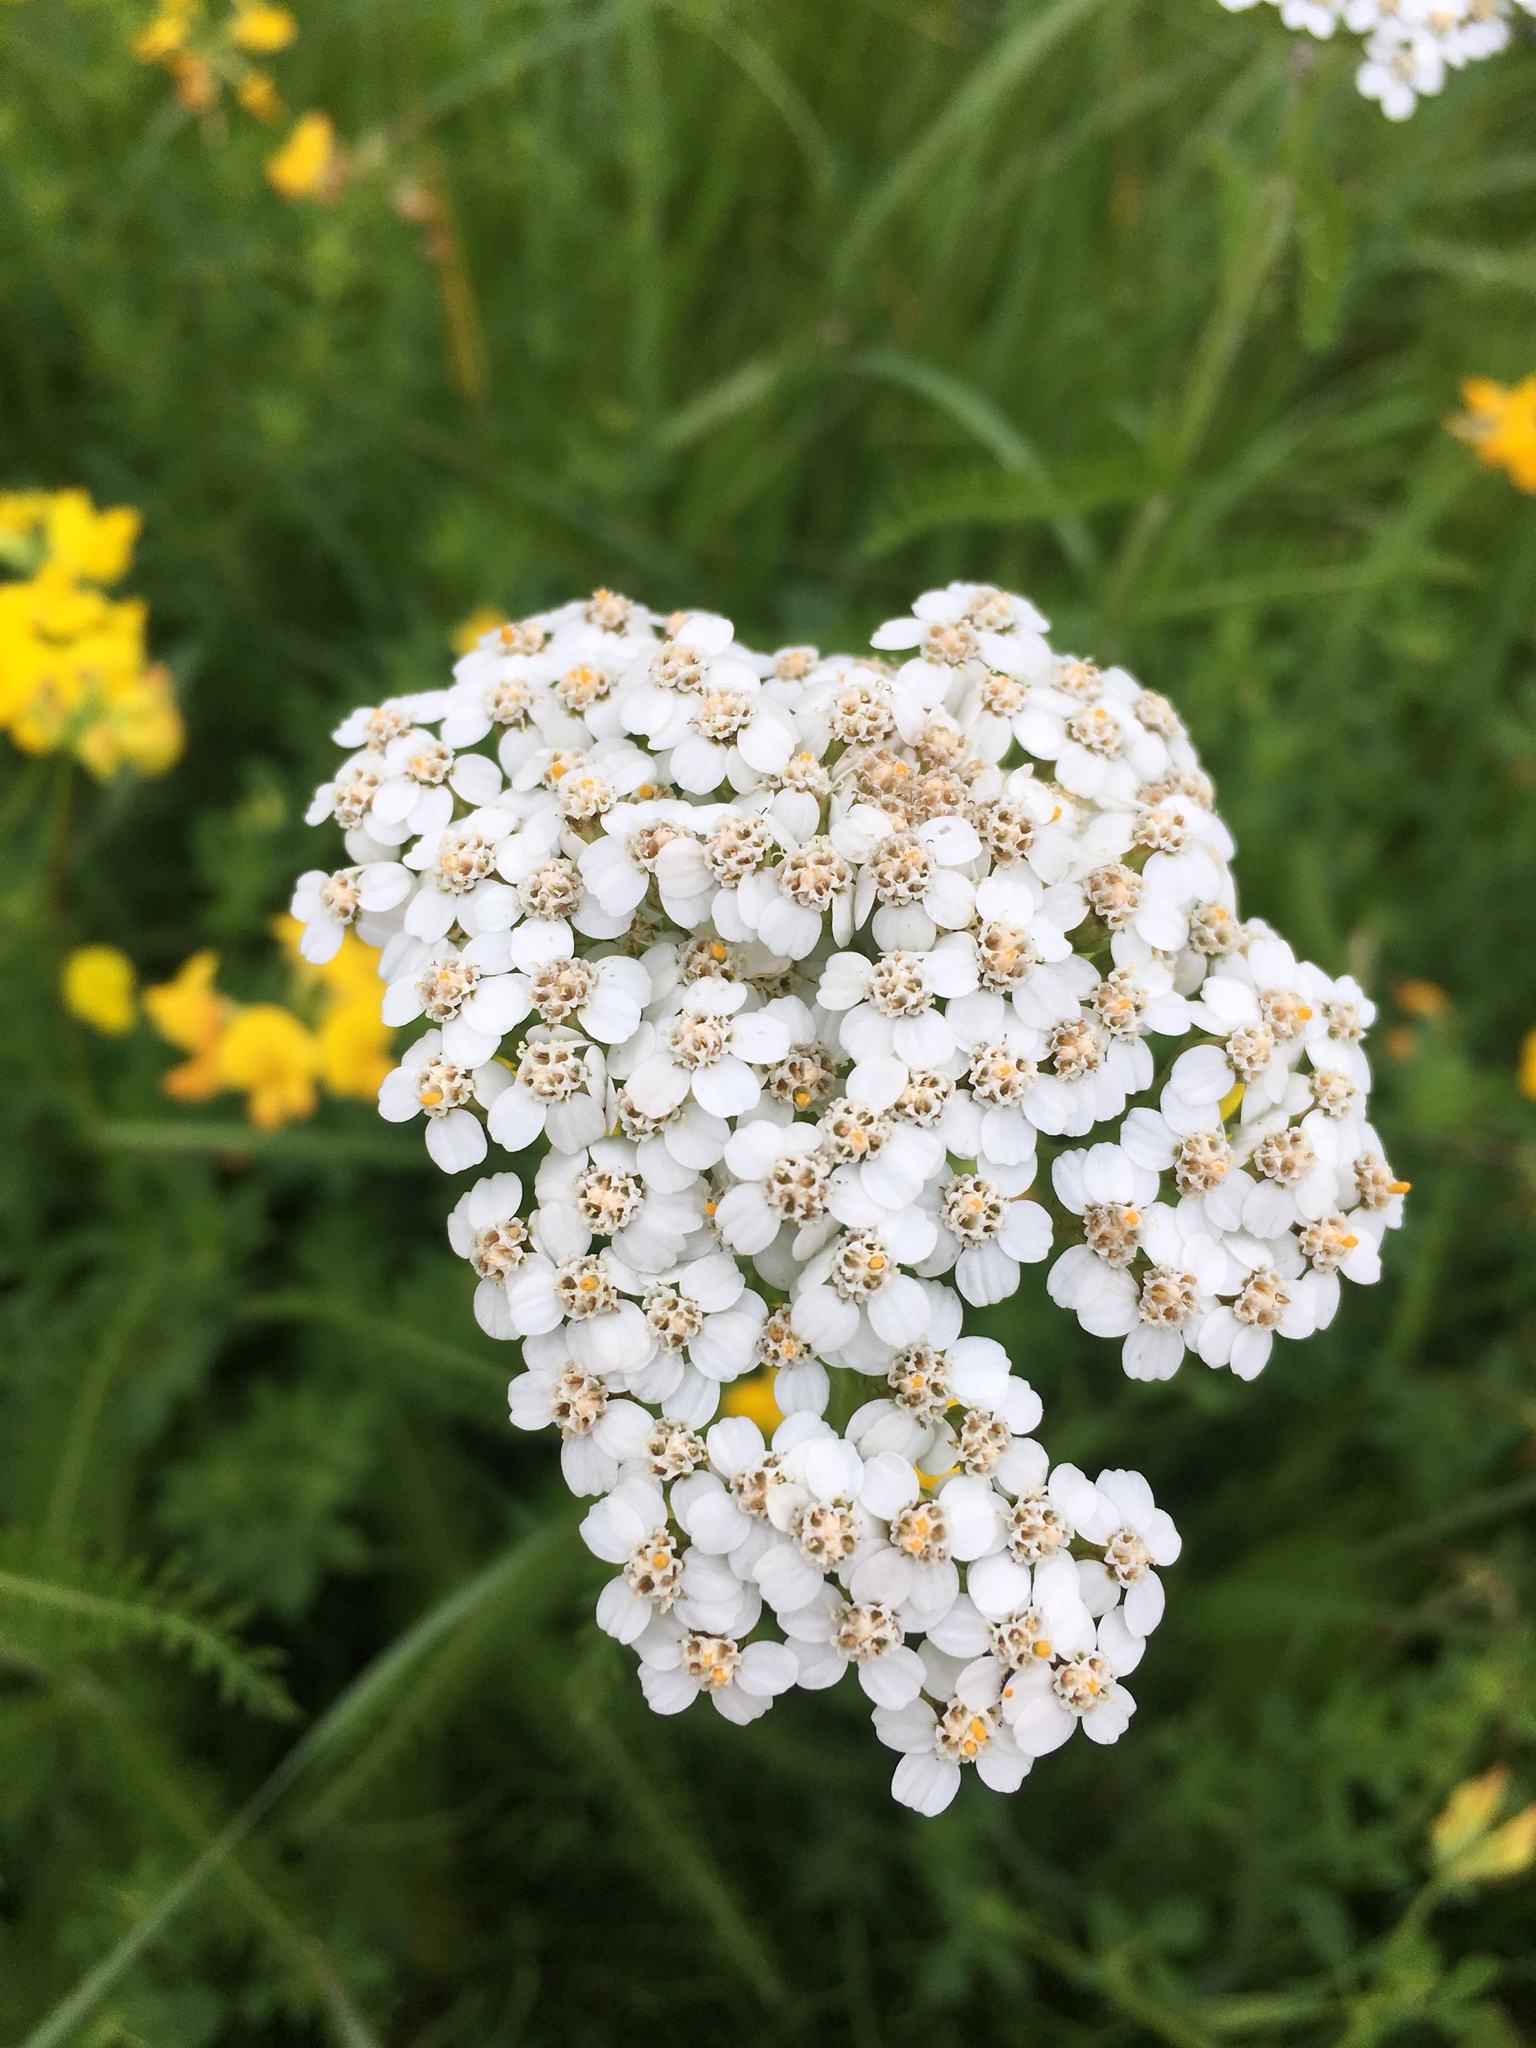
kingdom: Plantae
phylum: Tracheophyta
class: Magnoliopsida
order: Asterales
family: Asteraceae
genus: Achillea
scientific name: Achillea millefolium
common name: Yarrow
